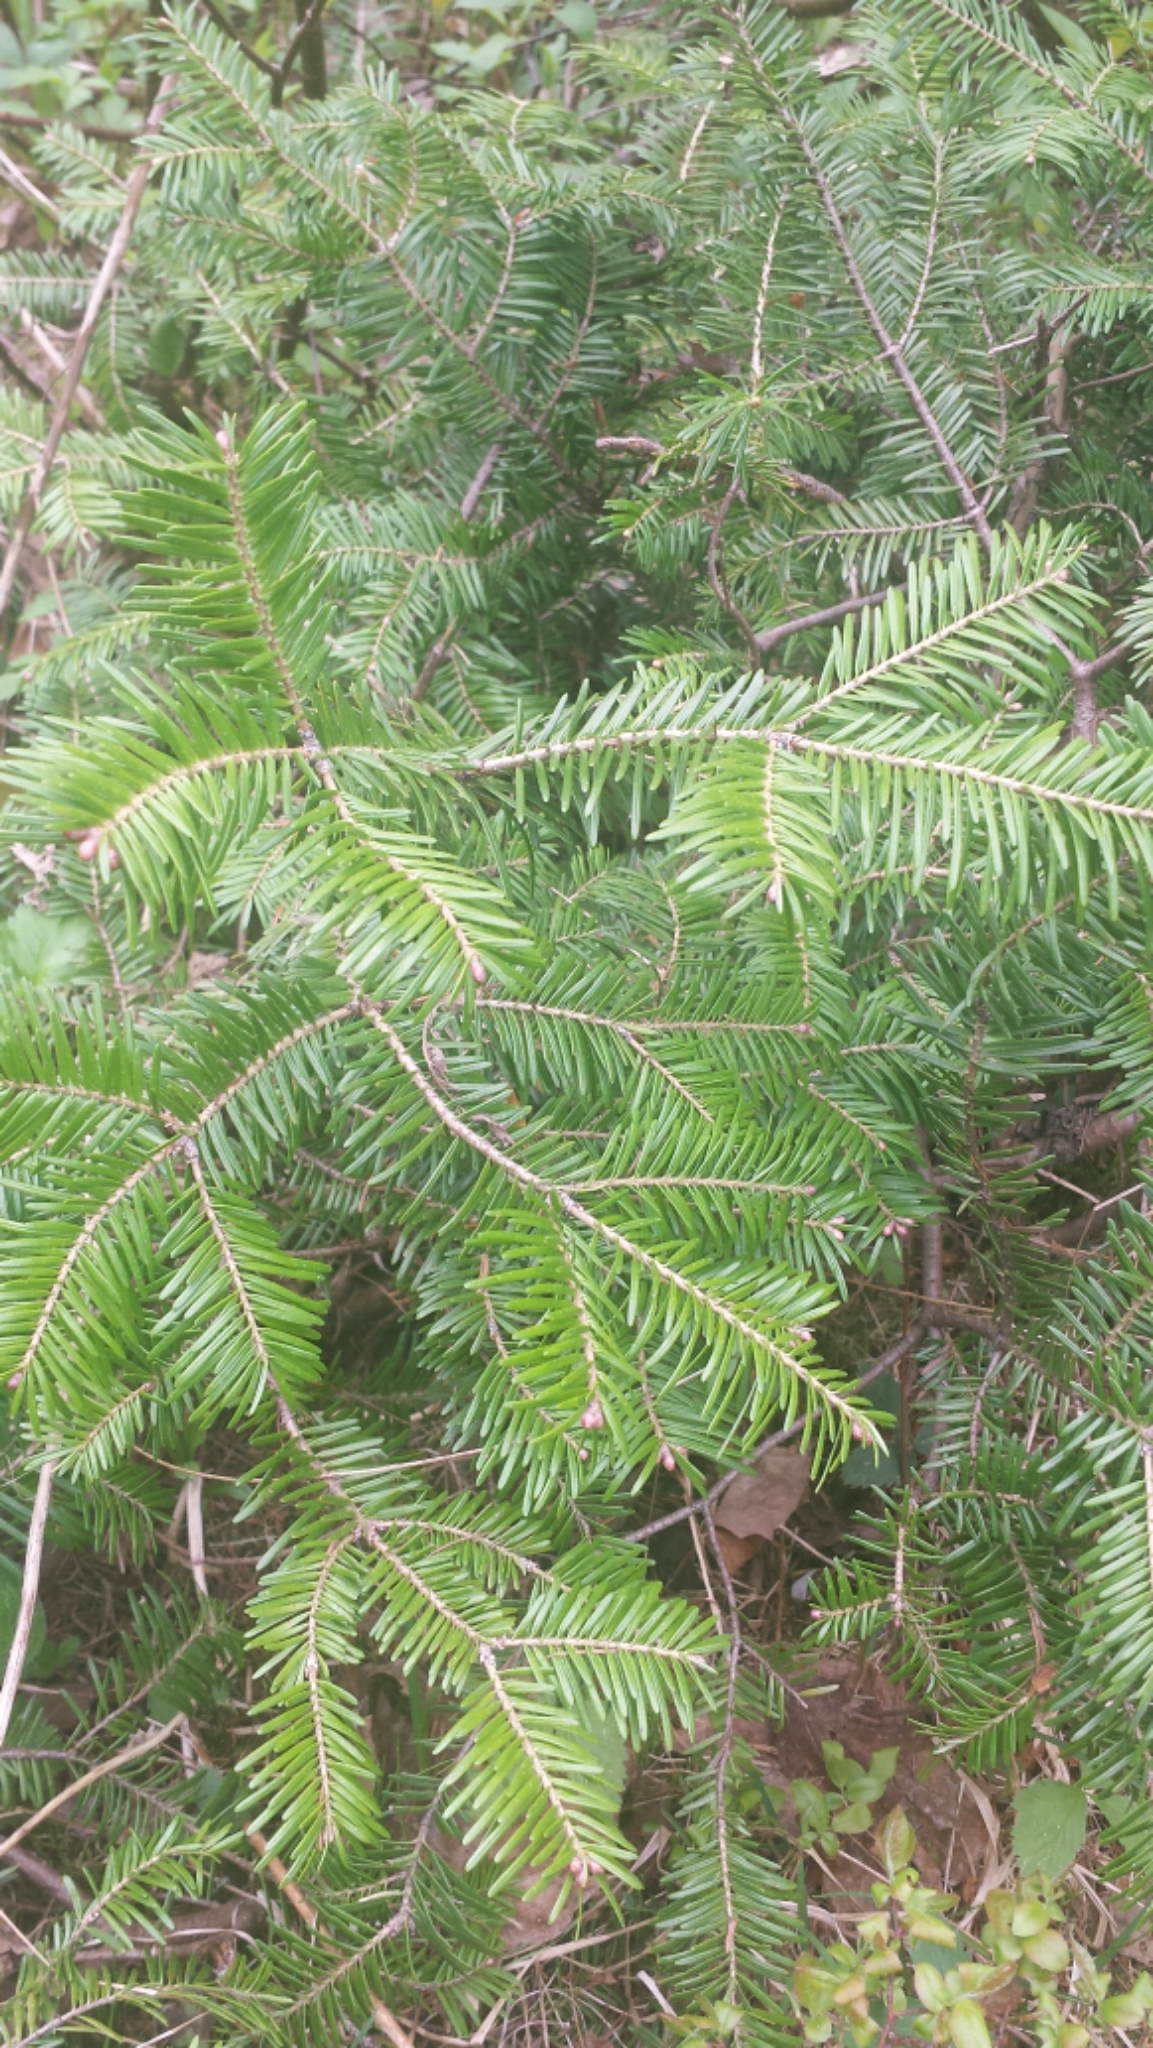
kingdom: Plantae
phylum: Tracheophyta
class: Pinopsida
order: Pinales
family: Pinaceae
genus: Abies
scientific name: Abies balsamea
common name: Balsam fir
